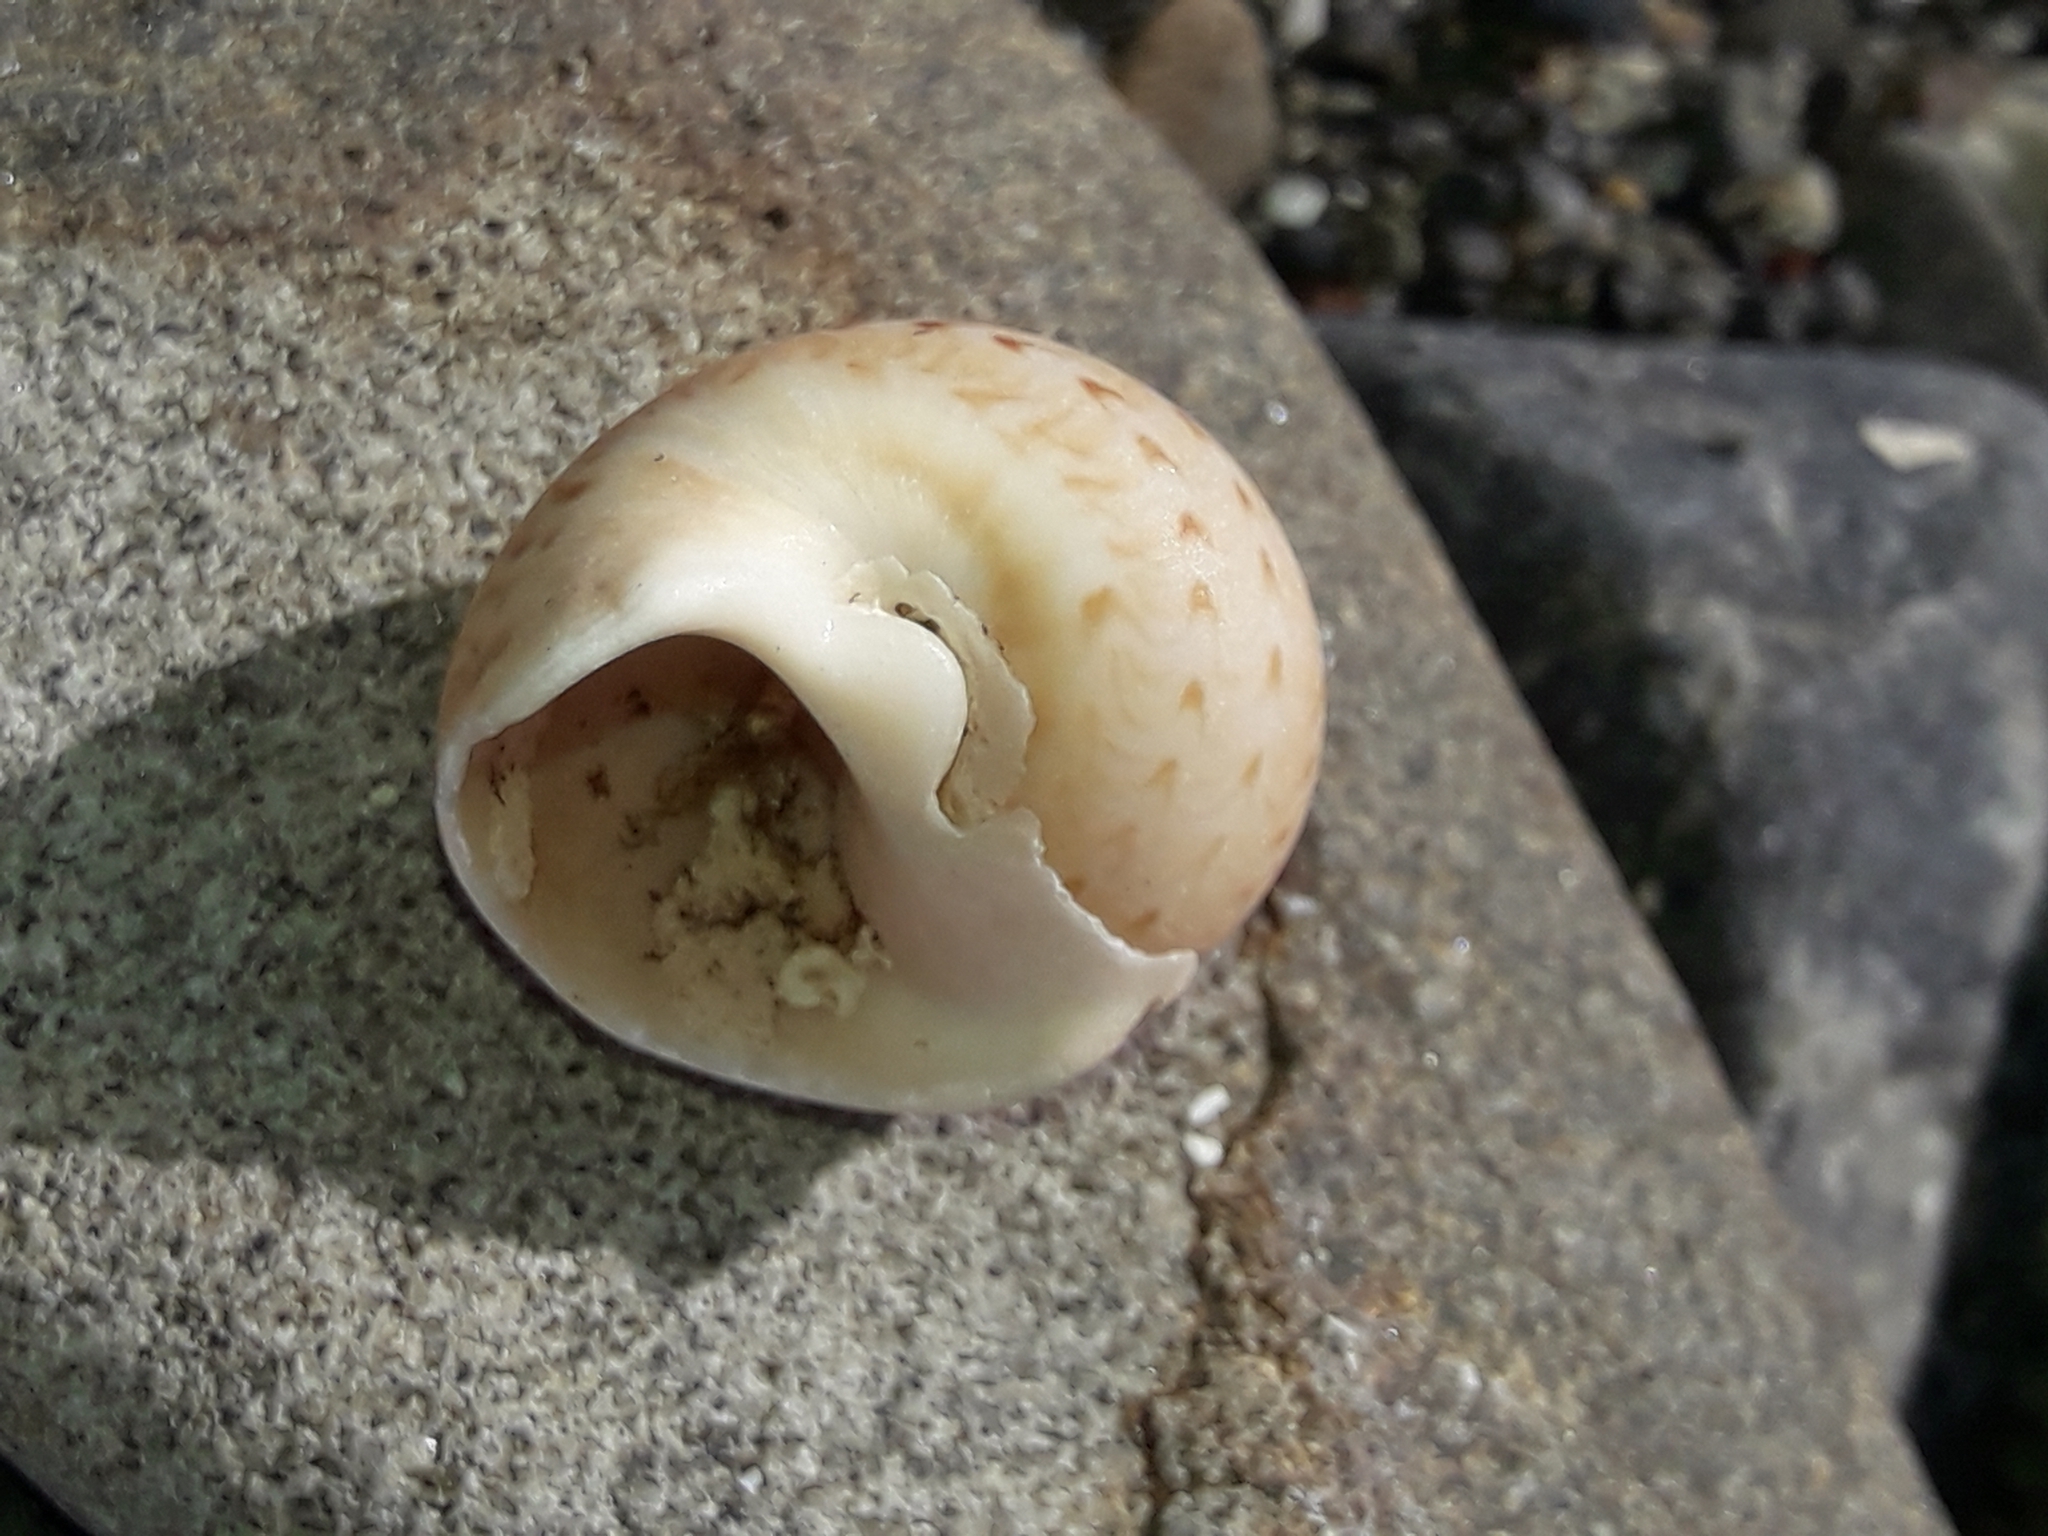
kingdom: Animalia
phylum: Mollusca
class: Gastropoda
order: Littorinimorpha
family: Naticidae
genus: Tanea
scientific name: Tanea zelandica
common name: New zealand moonsnail
